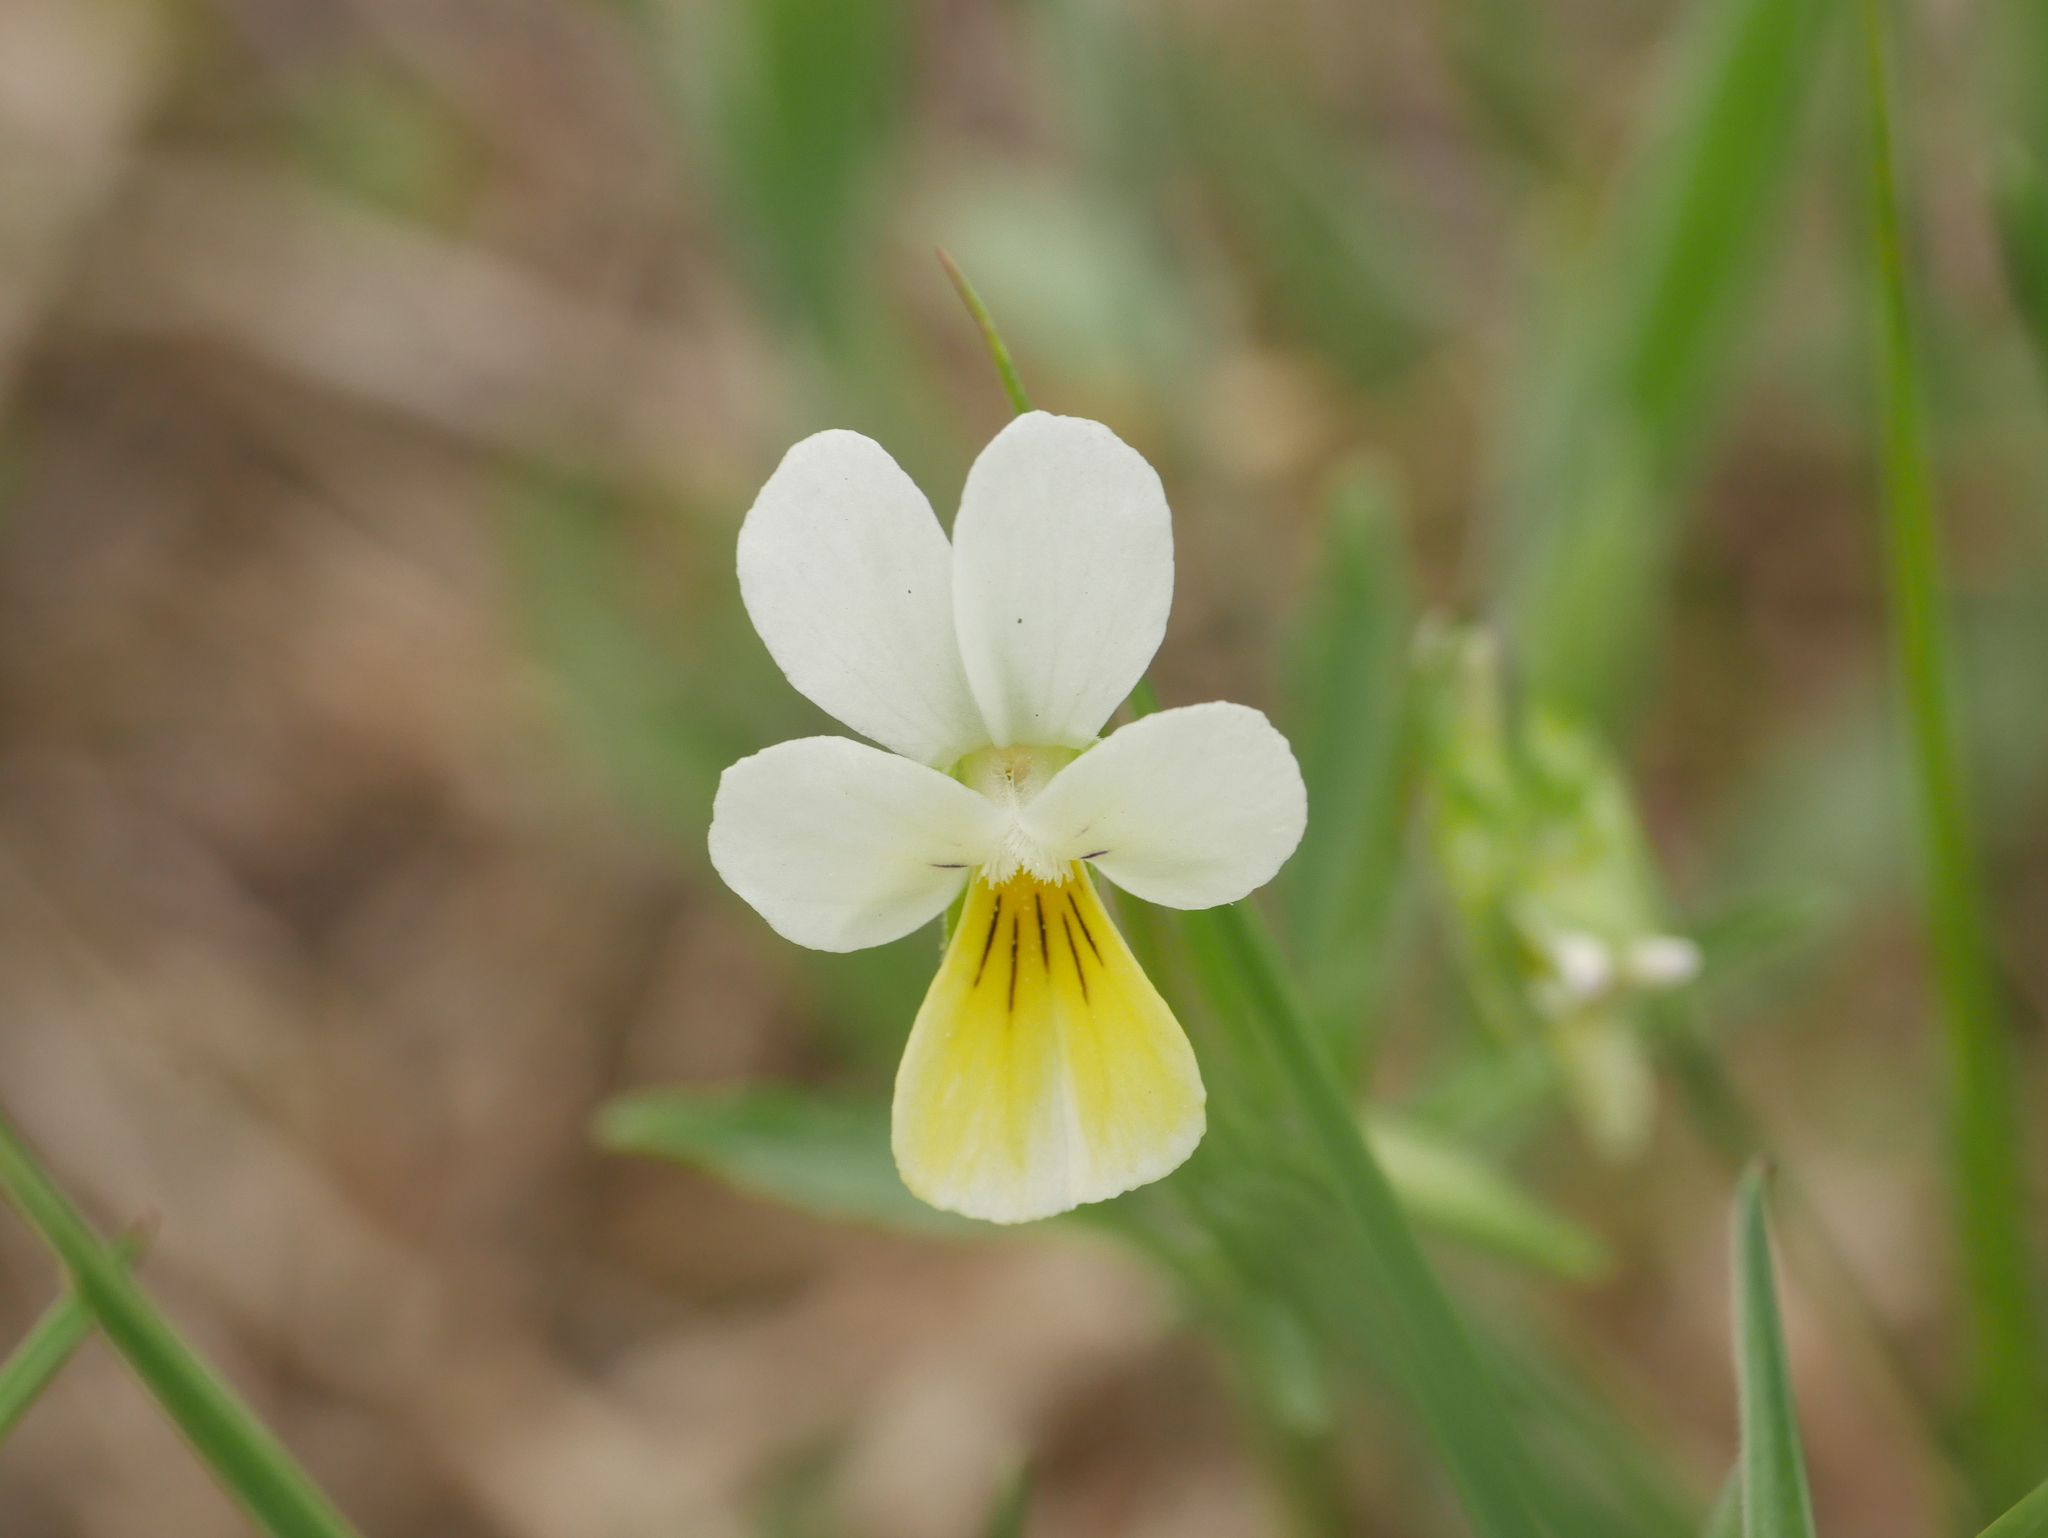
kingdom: Plantae
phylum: Tracheophyta
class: Magnoliopsida
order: Malpighiales
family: Violaceae
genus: Viola
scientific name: Viola arvensis
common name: Field pansy
